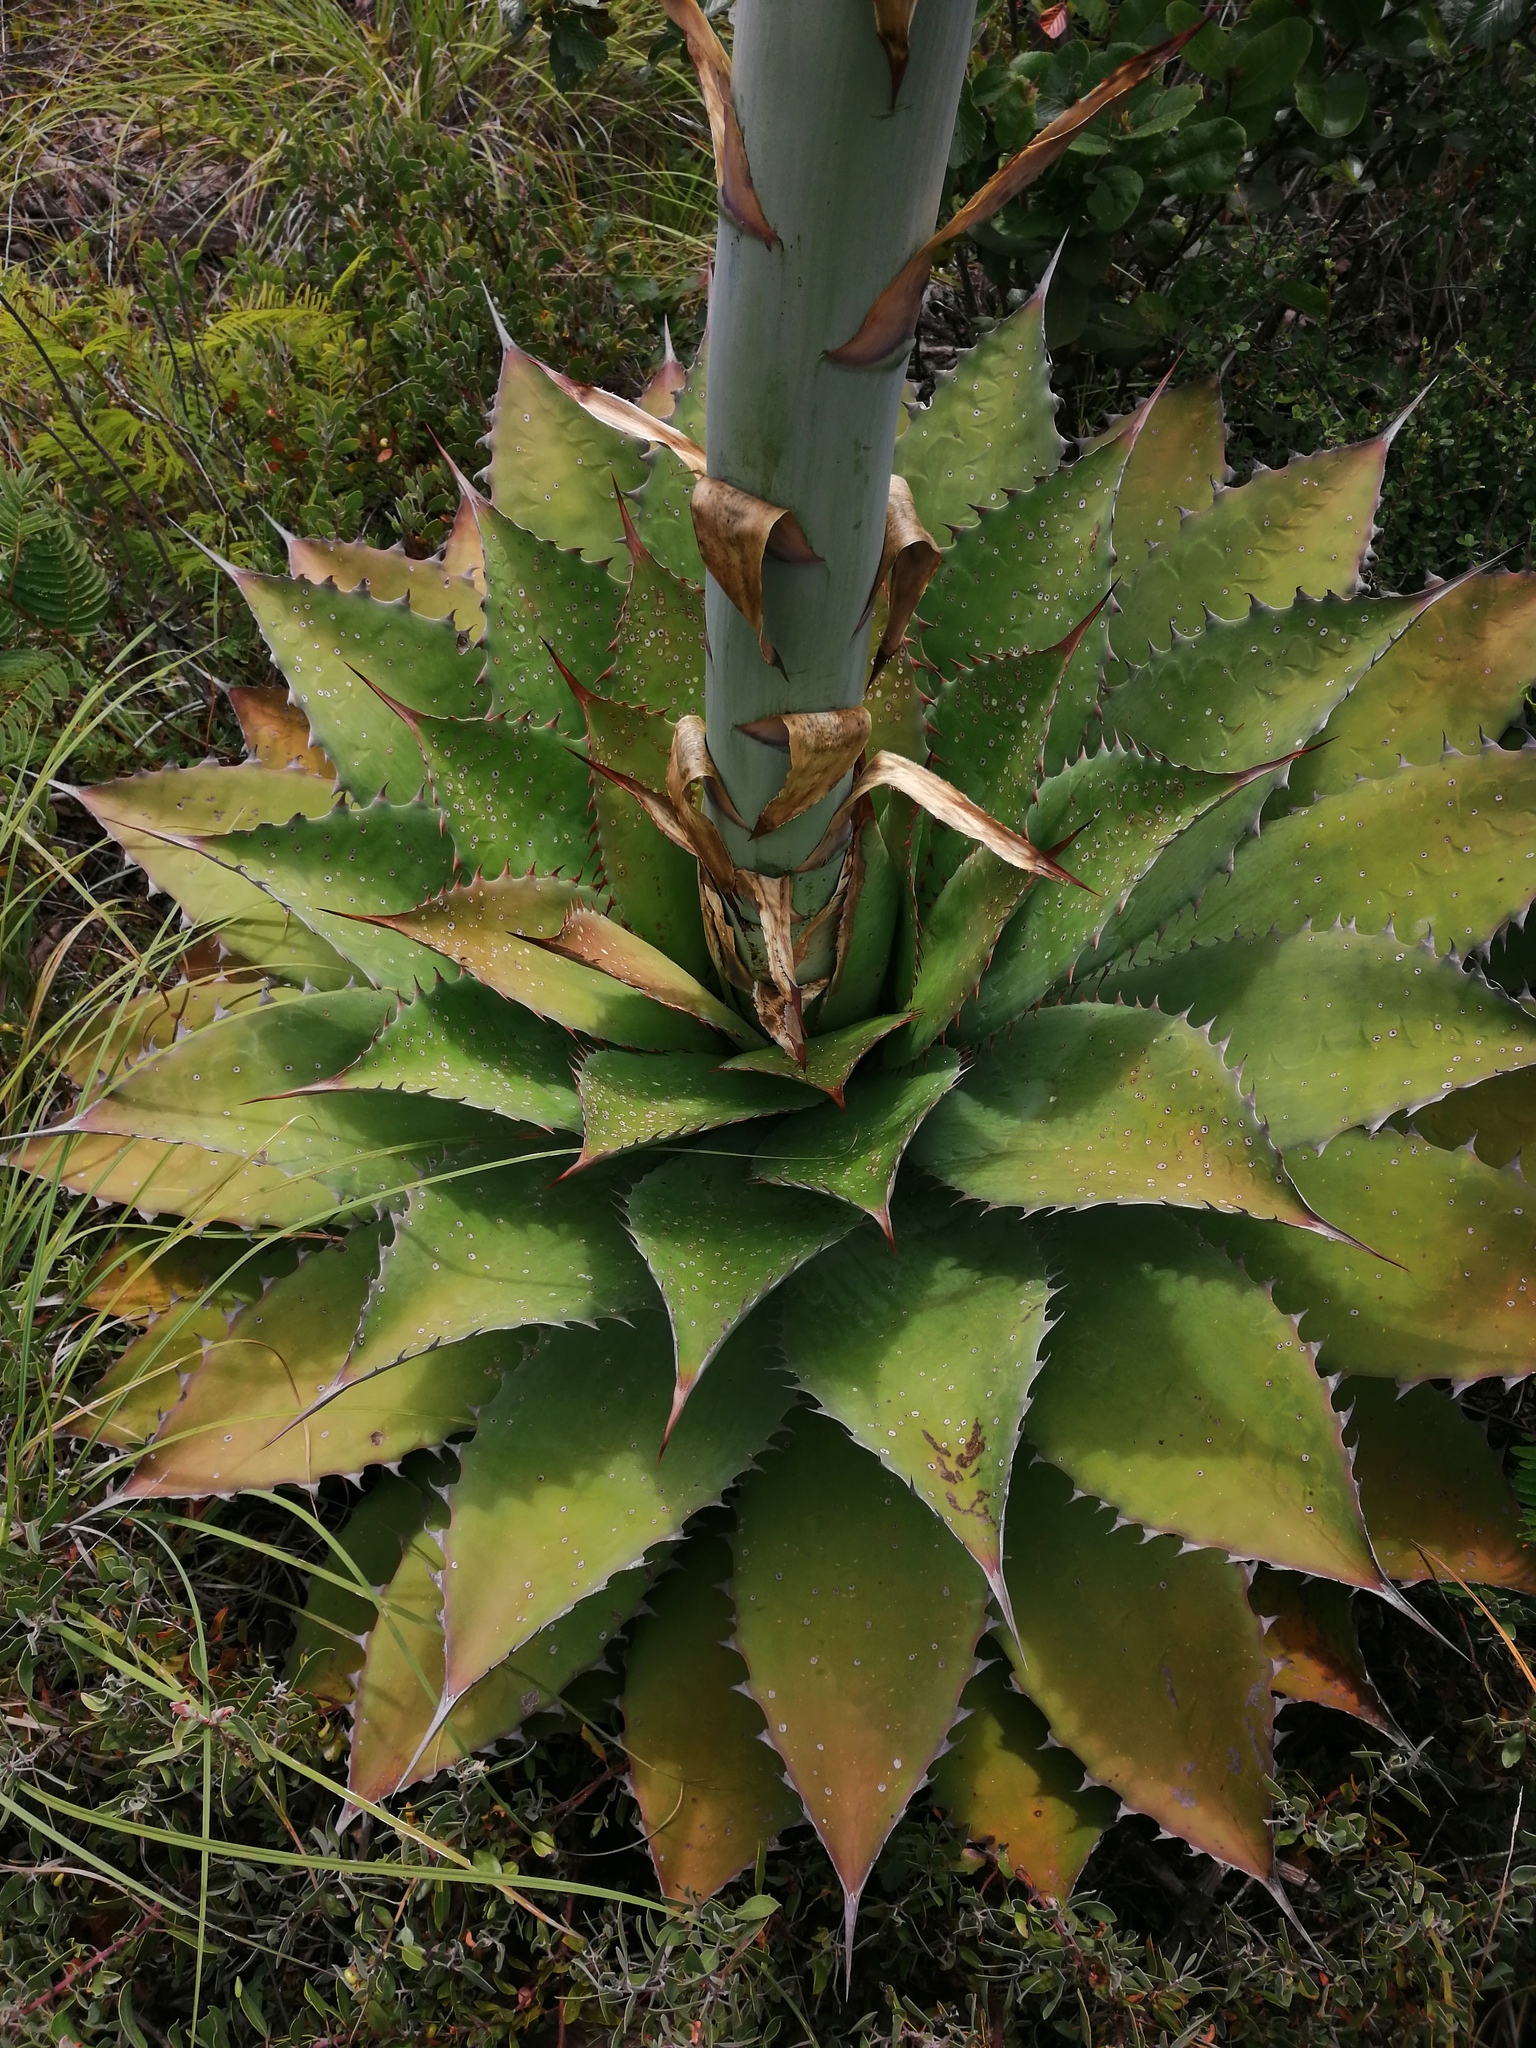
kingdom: Plantae
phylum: Tracheophyta
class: Liliopsida
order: Asparagales
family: Asparagaceae
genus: Agave
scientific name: Agave potatorum
